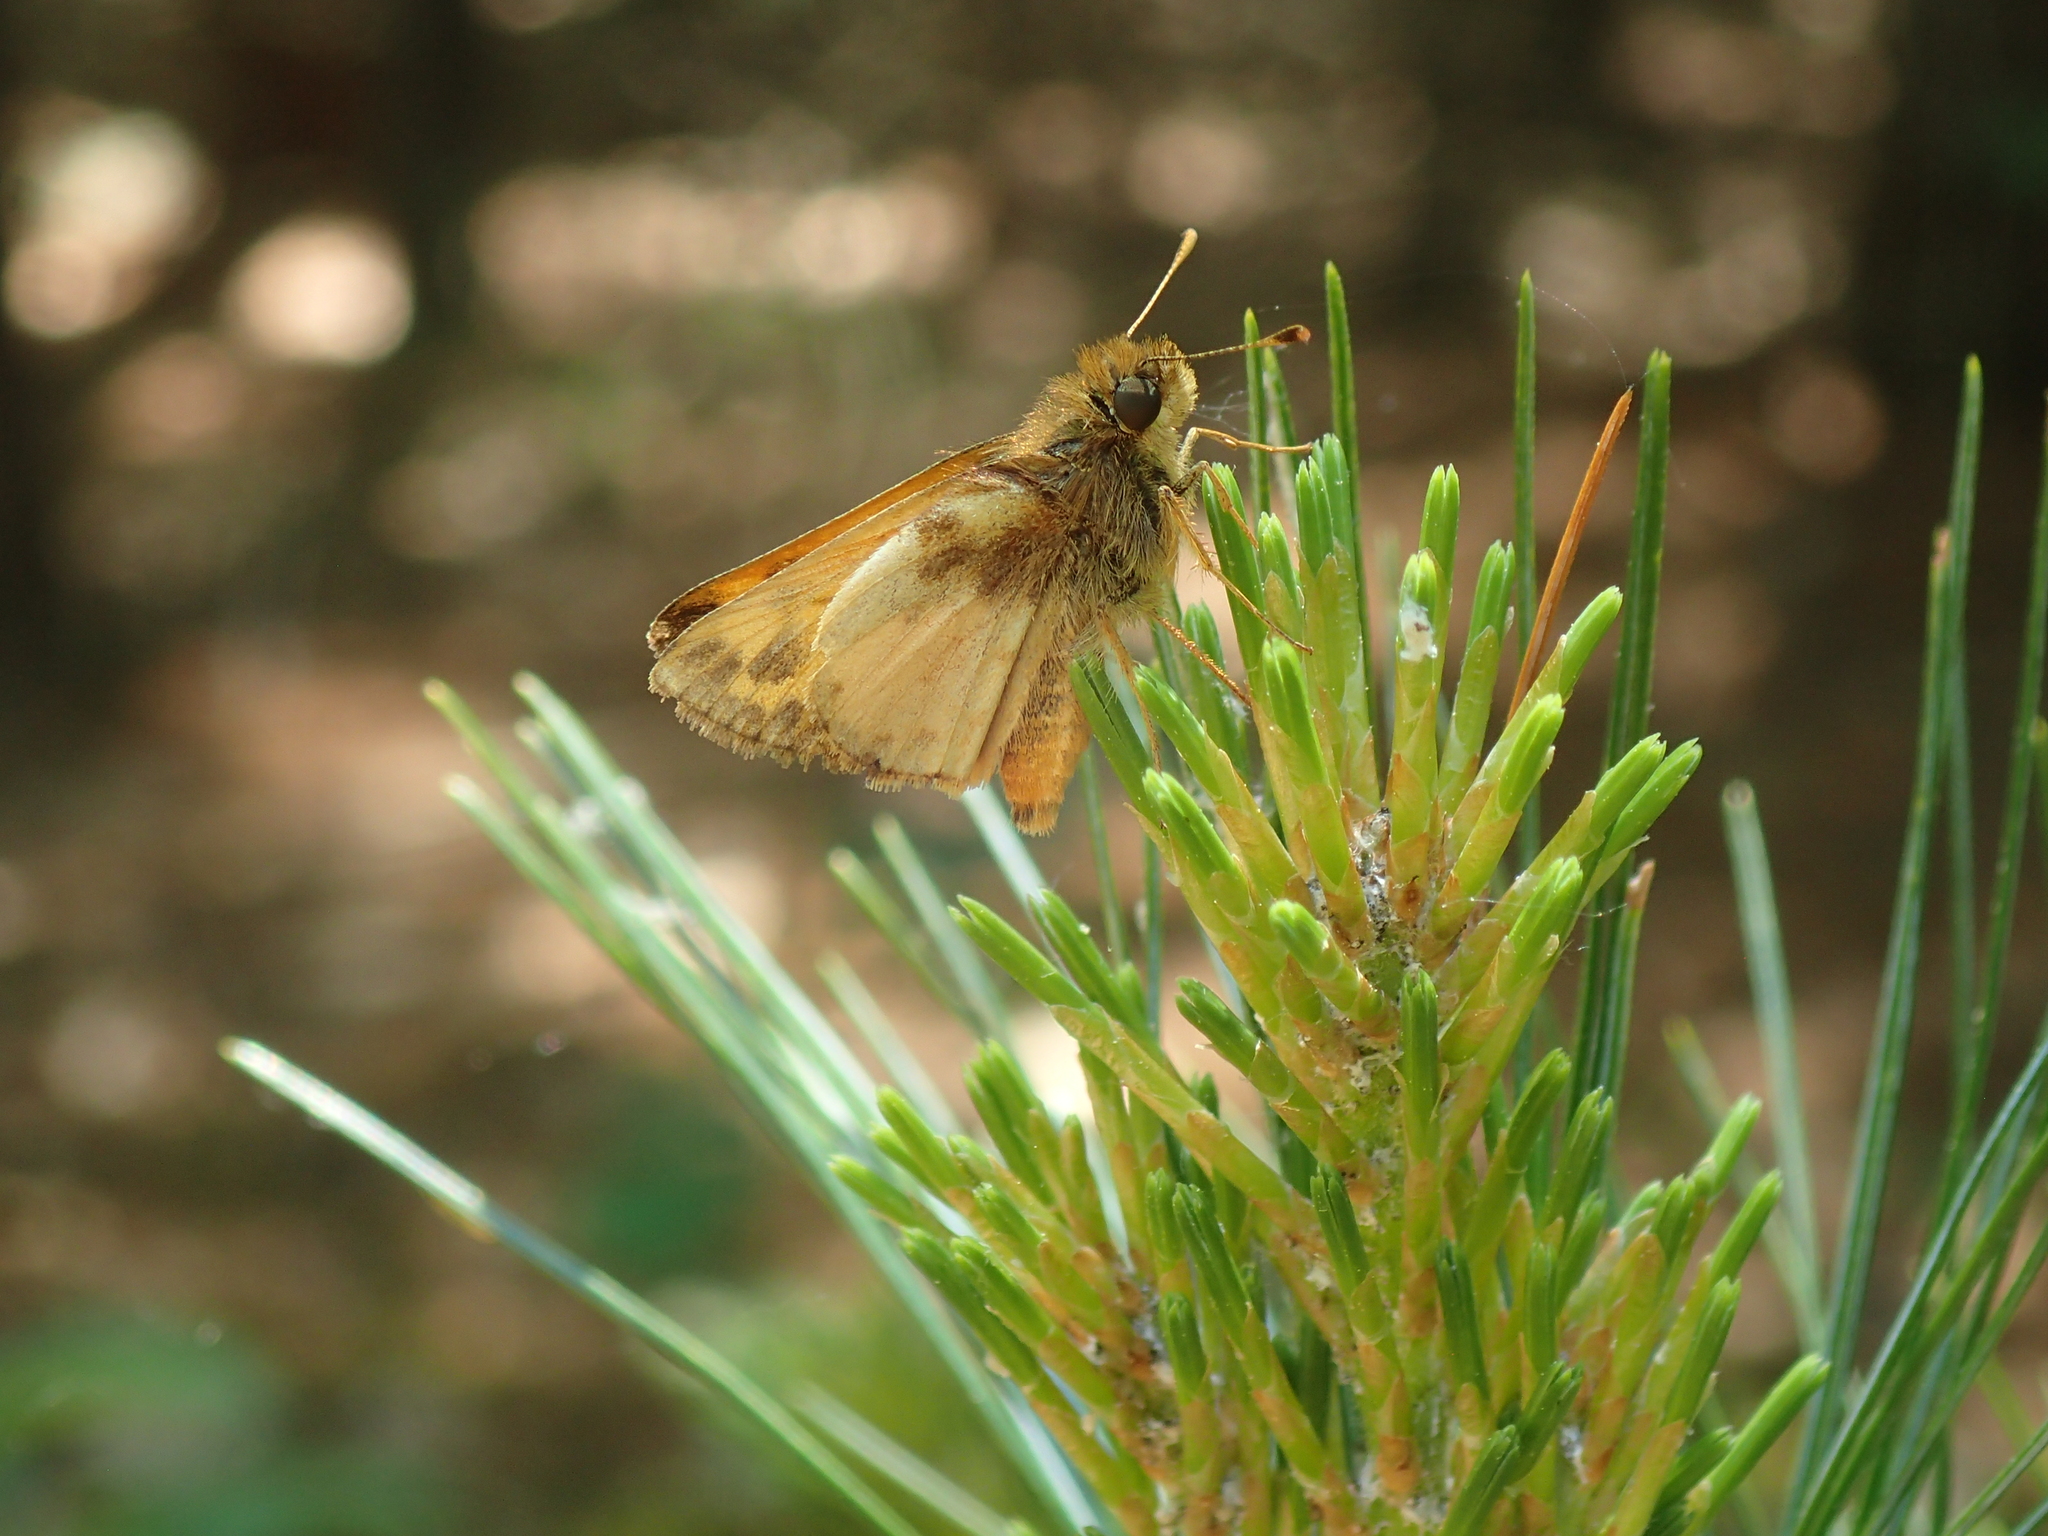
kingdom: Animalia
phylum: Arthropoda
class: Insecta
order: Lepidoptera
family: Hesperiidae
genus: Lon
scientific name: Lon zabulon
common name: Zabulon skipper
